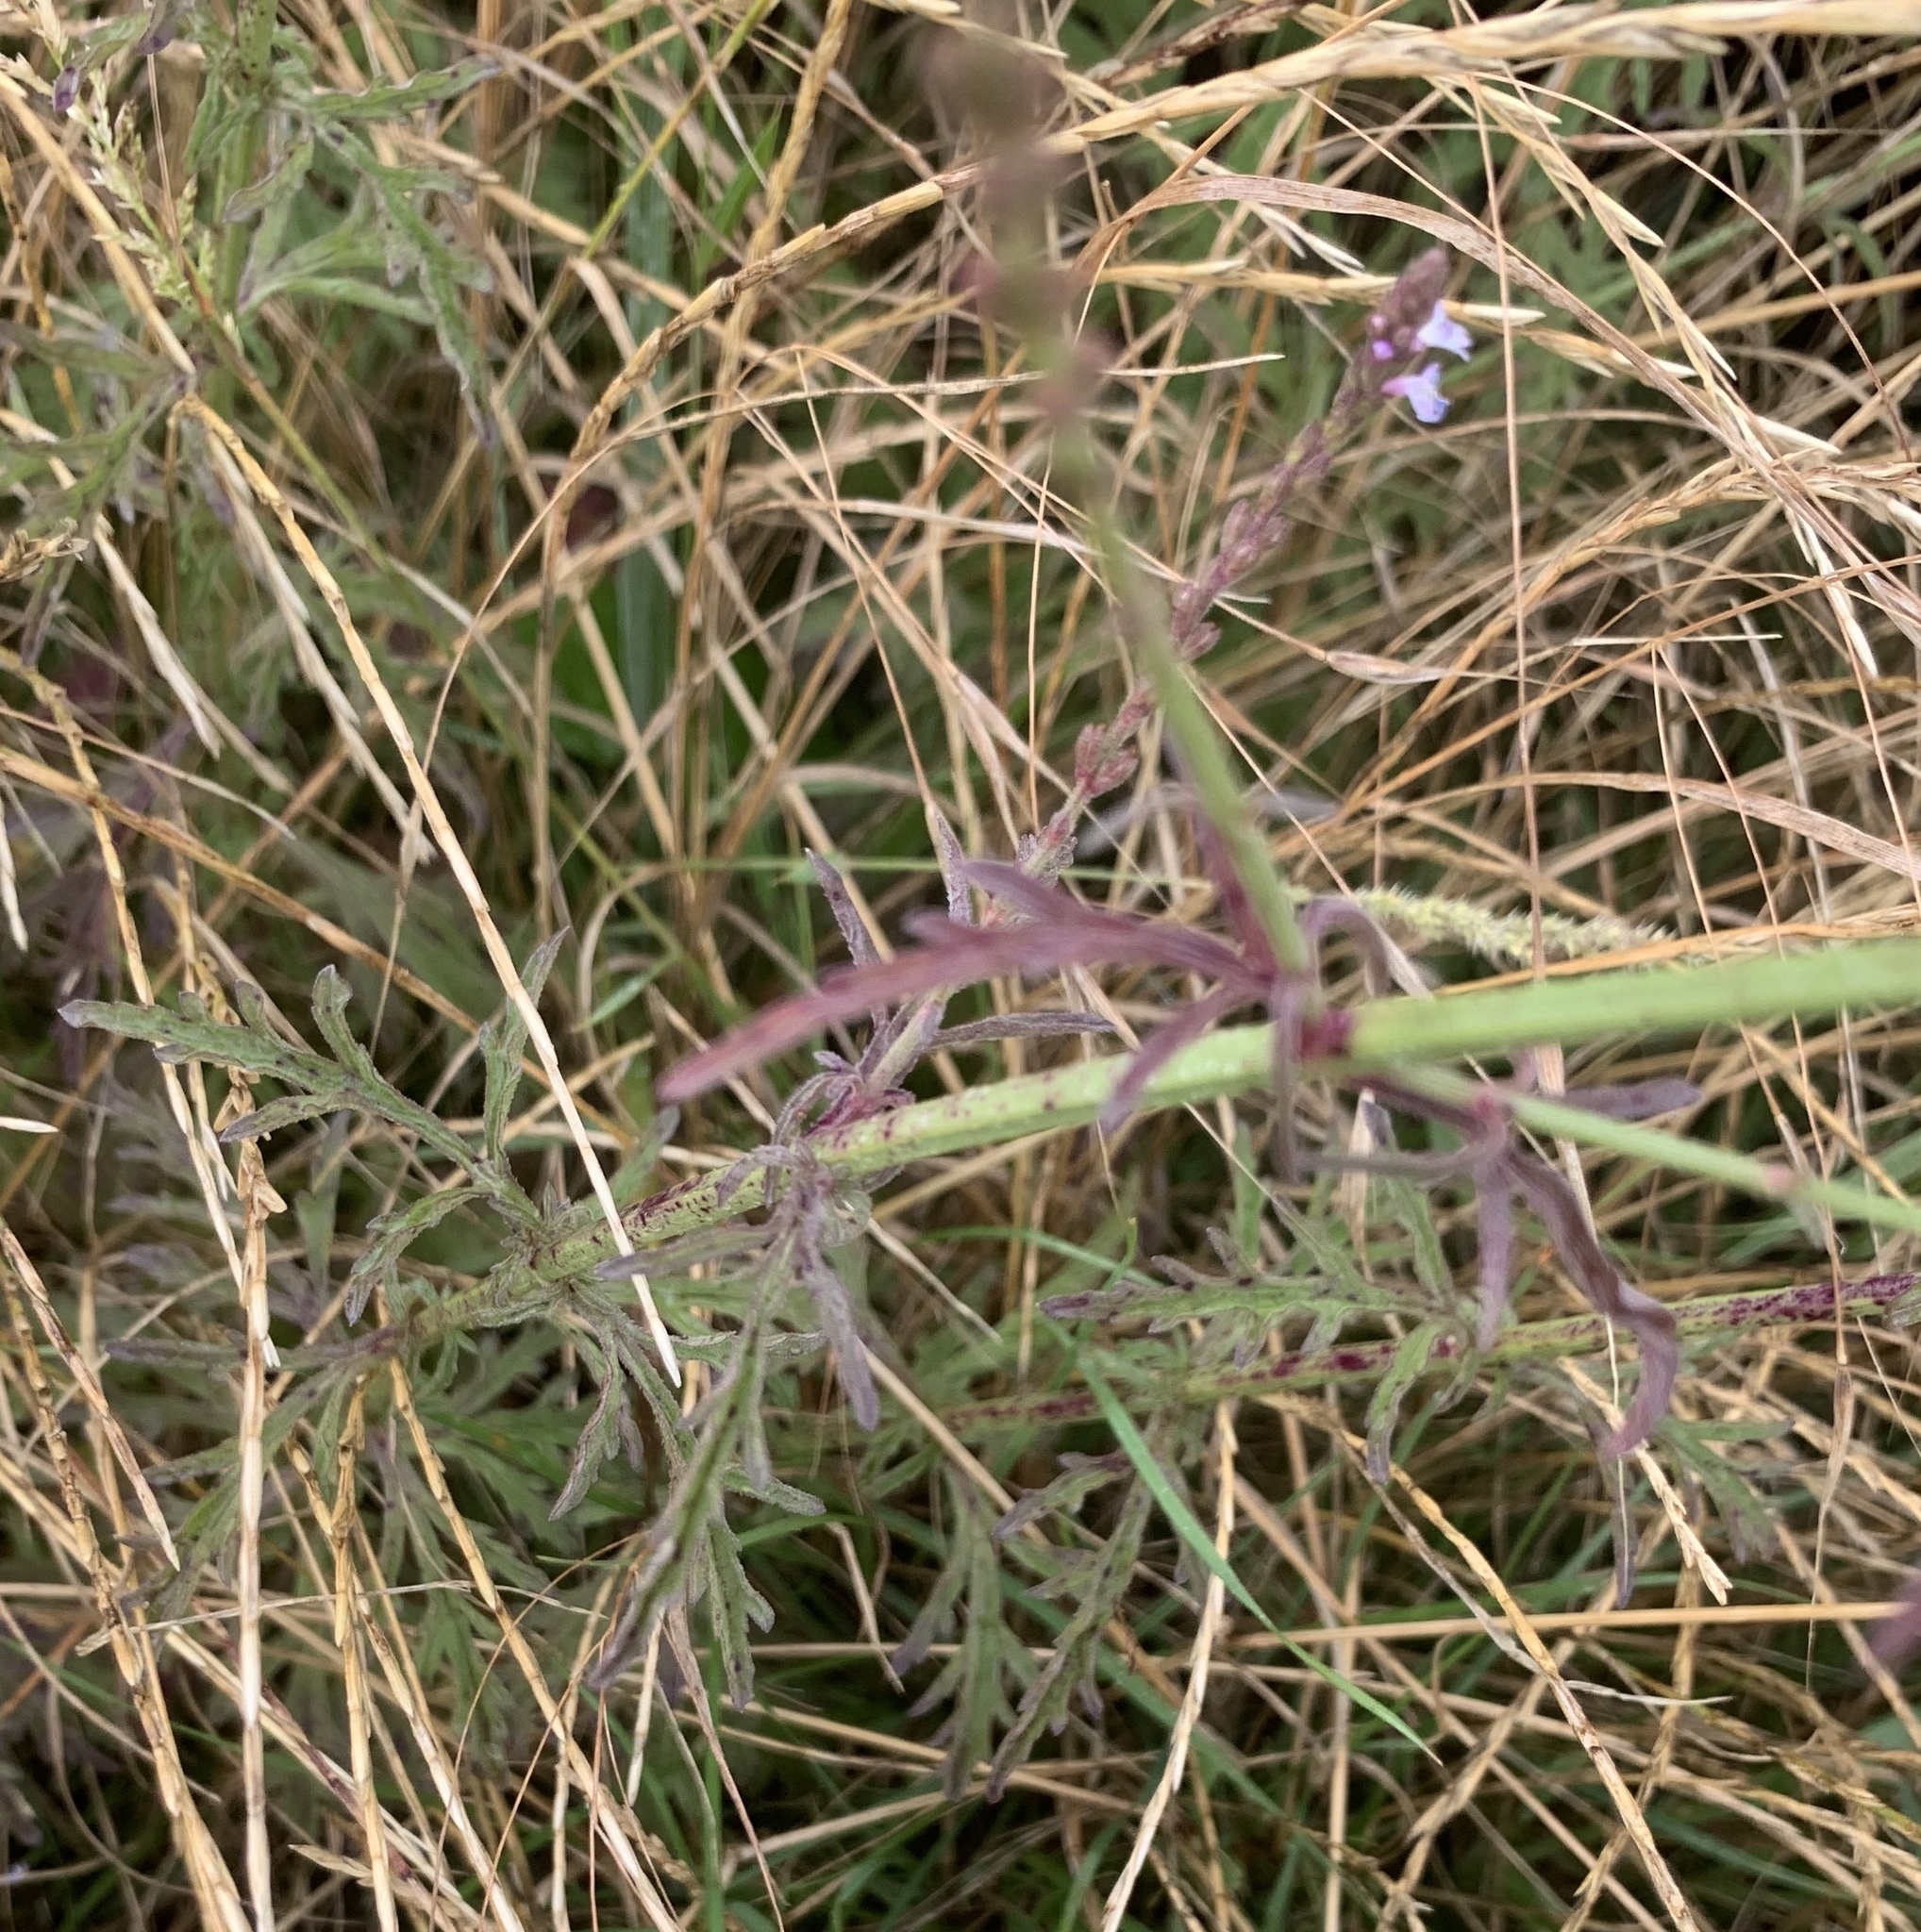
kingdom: Plantae
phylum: Tracheophyta
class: Magnoliopsida
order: Lamiales
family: Verbenaceae
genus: Verbena
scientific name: Verbena officinalis
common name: Vervain
